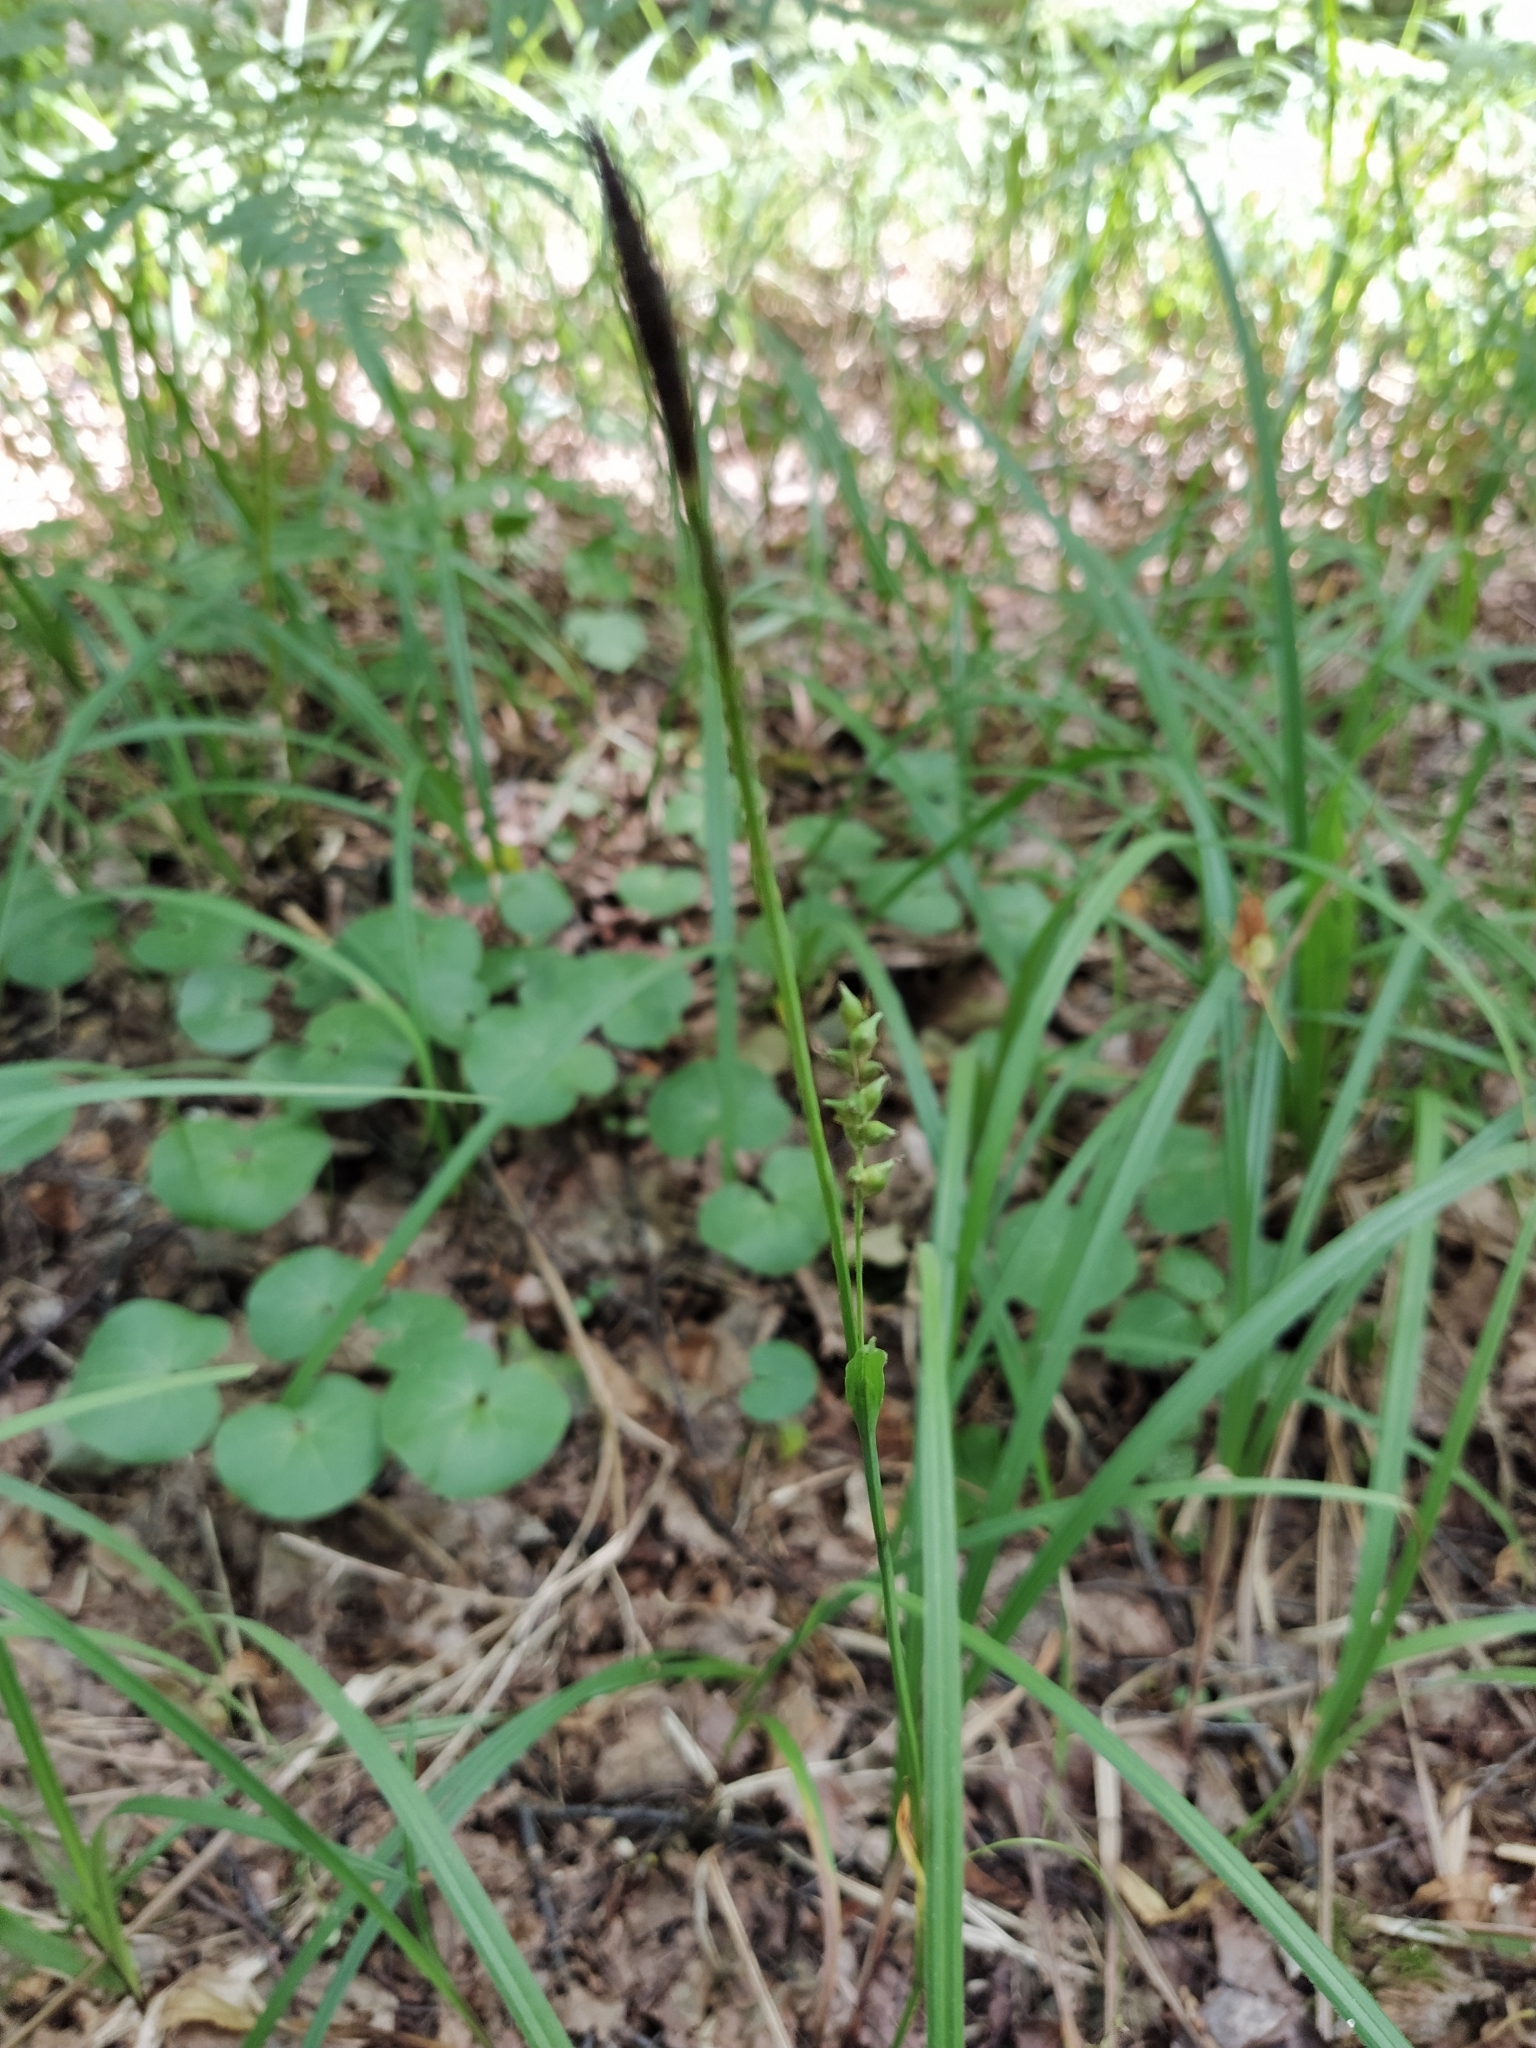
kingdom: Plantae
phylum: Tracheophyta
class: Liliopsida
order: Poales
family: Cyperaceae
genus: Carex
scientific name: Carex pilosa
